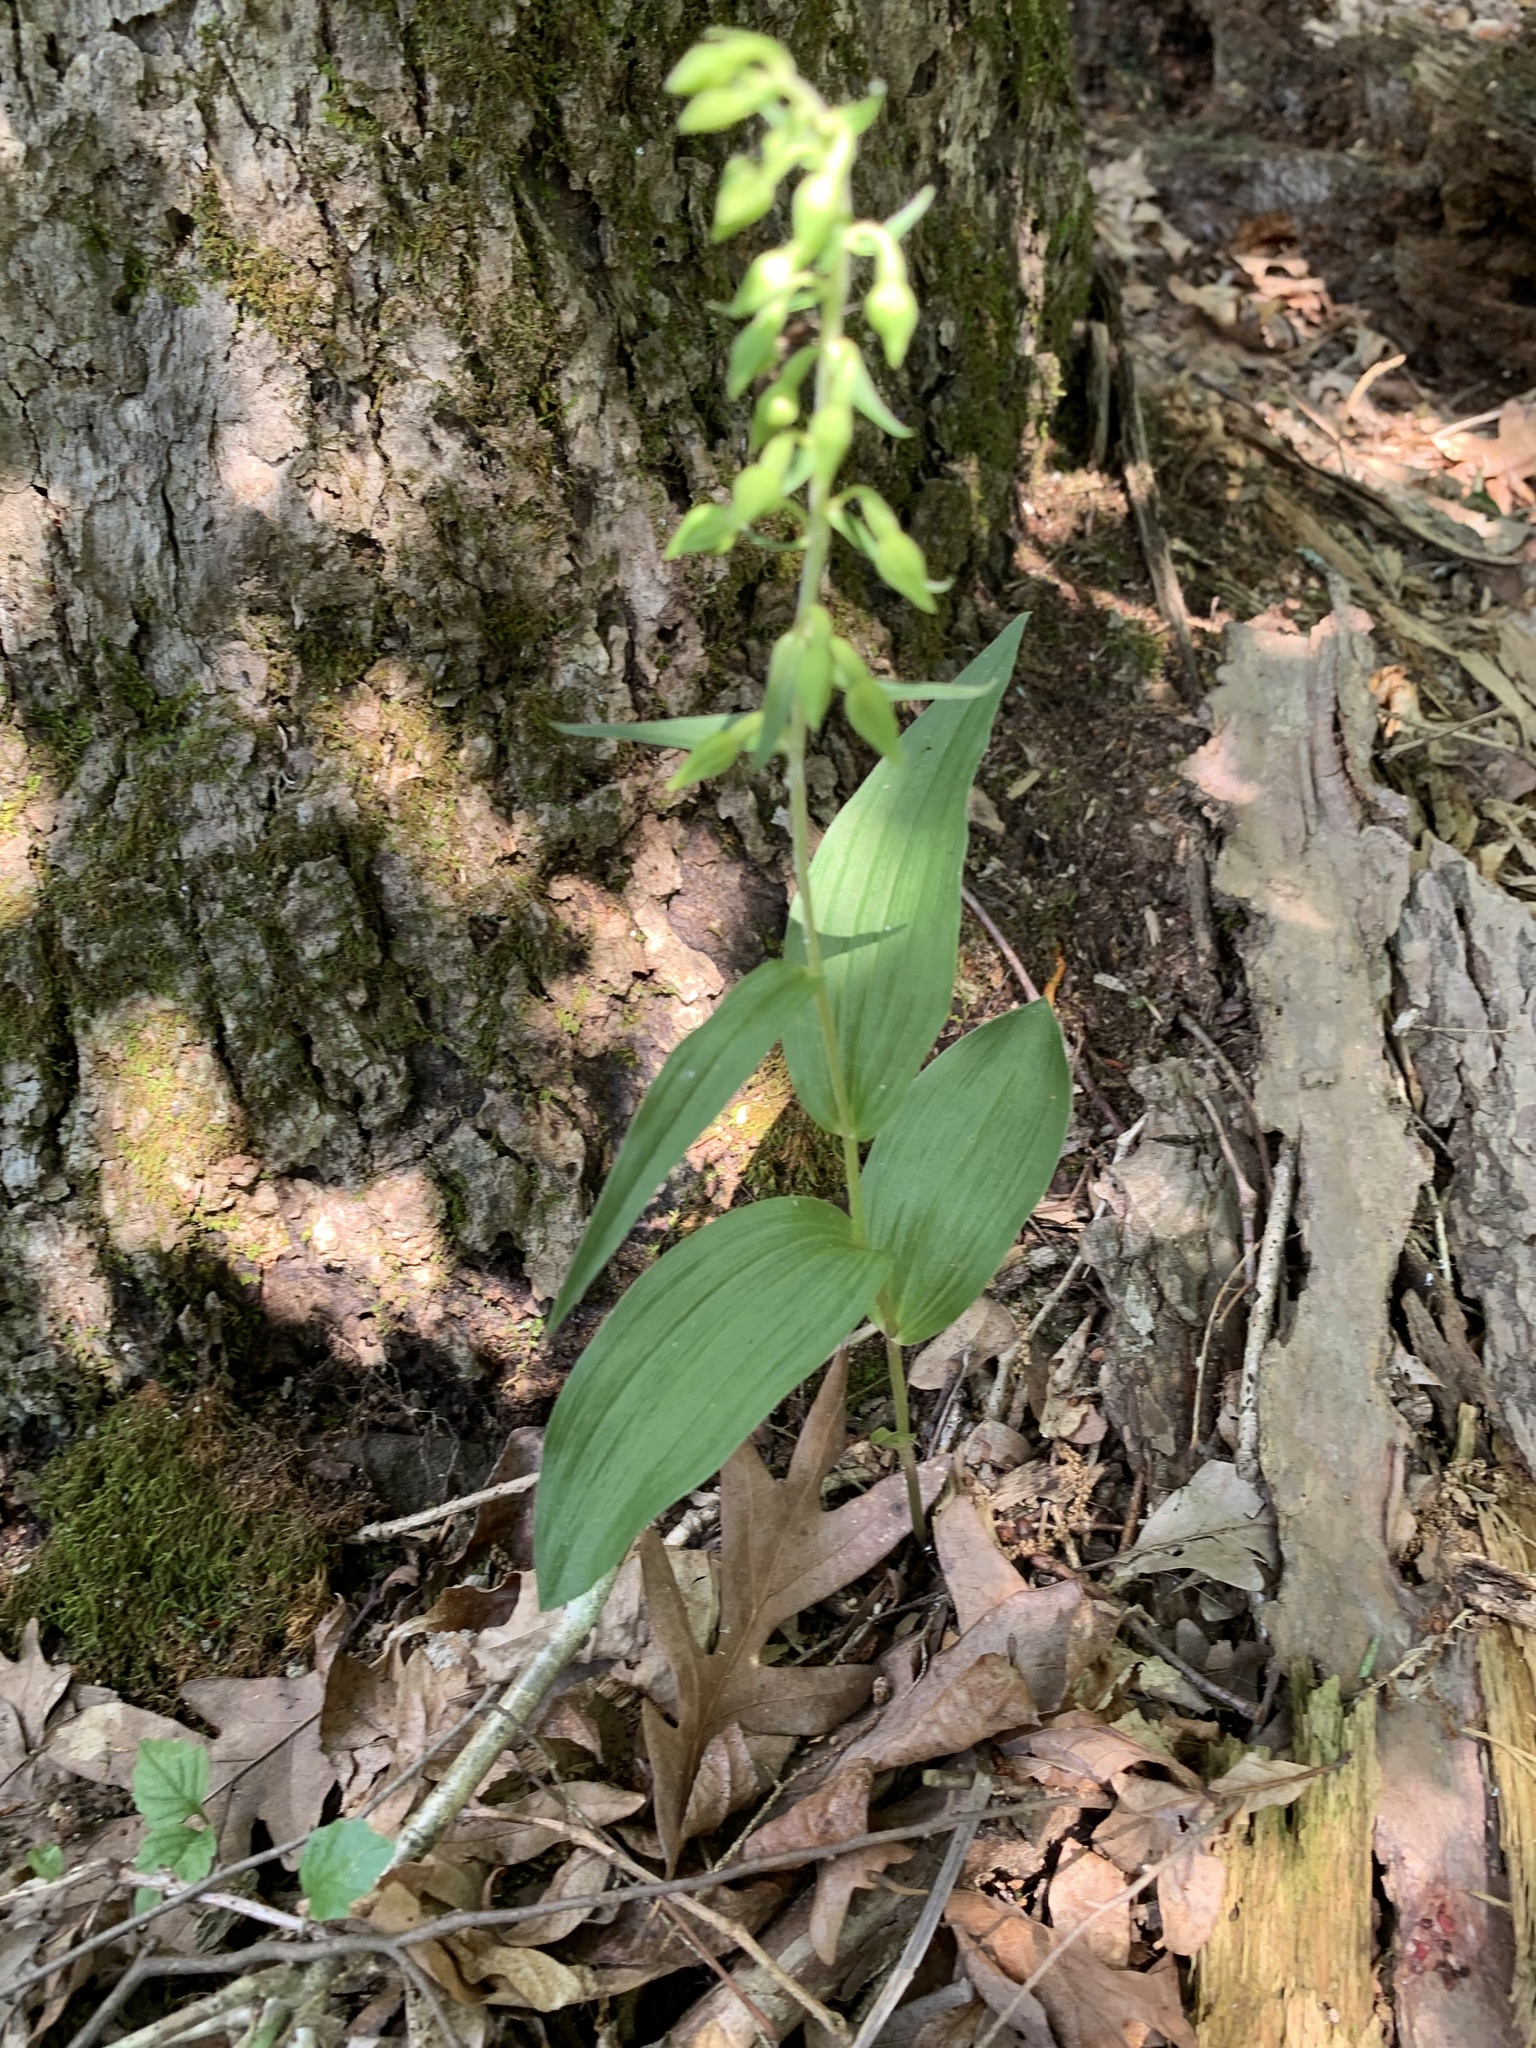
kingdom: Plantae
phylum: Tracheophyta
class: Liliopsida
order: Asparagales
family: Orchidaceae
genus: Epipactis
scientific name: Epipactis helleborine
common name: Broad-leaved helleborine
